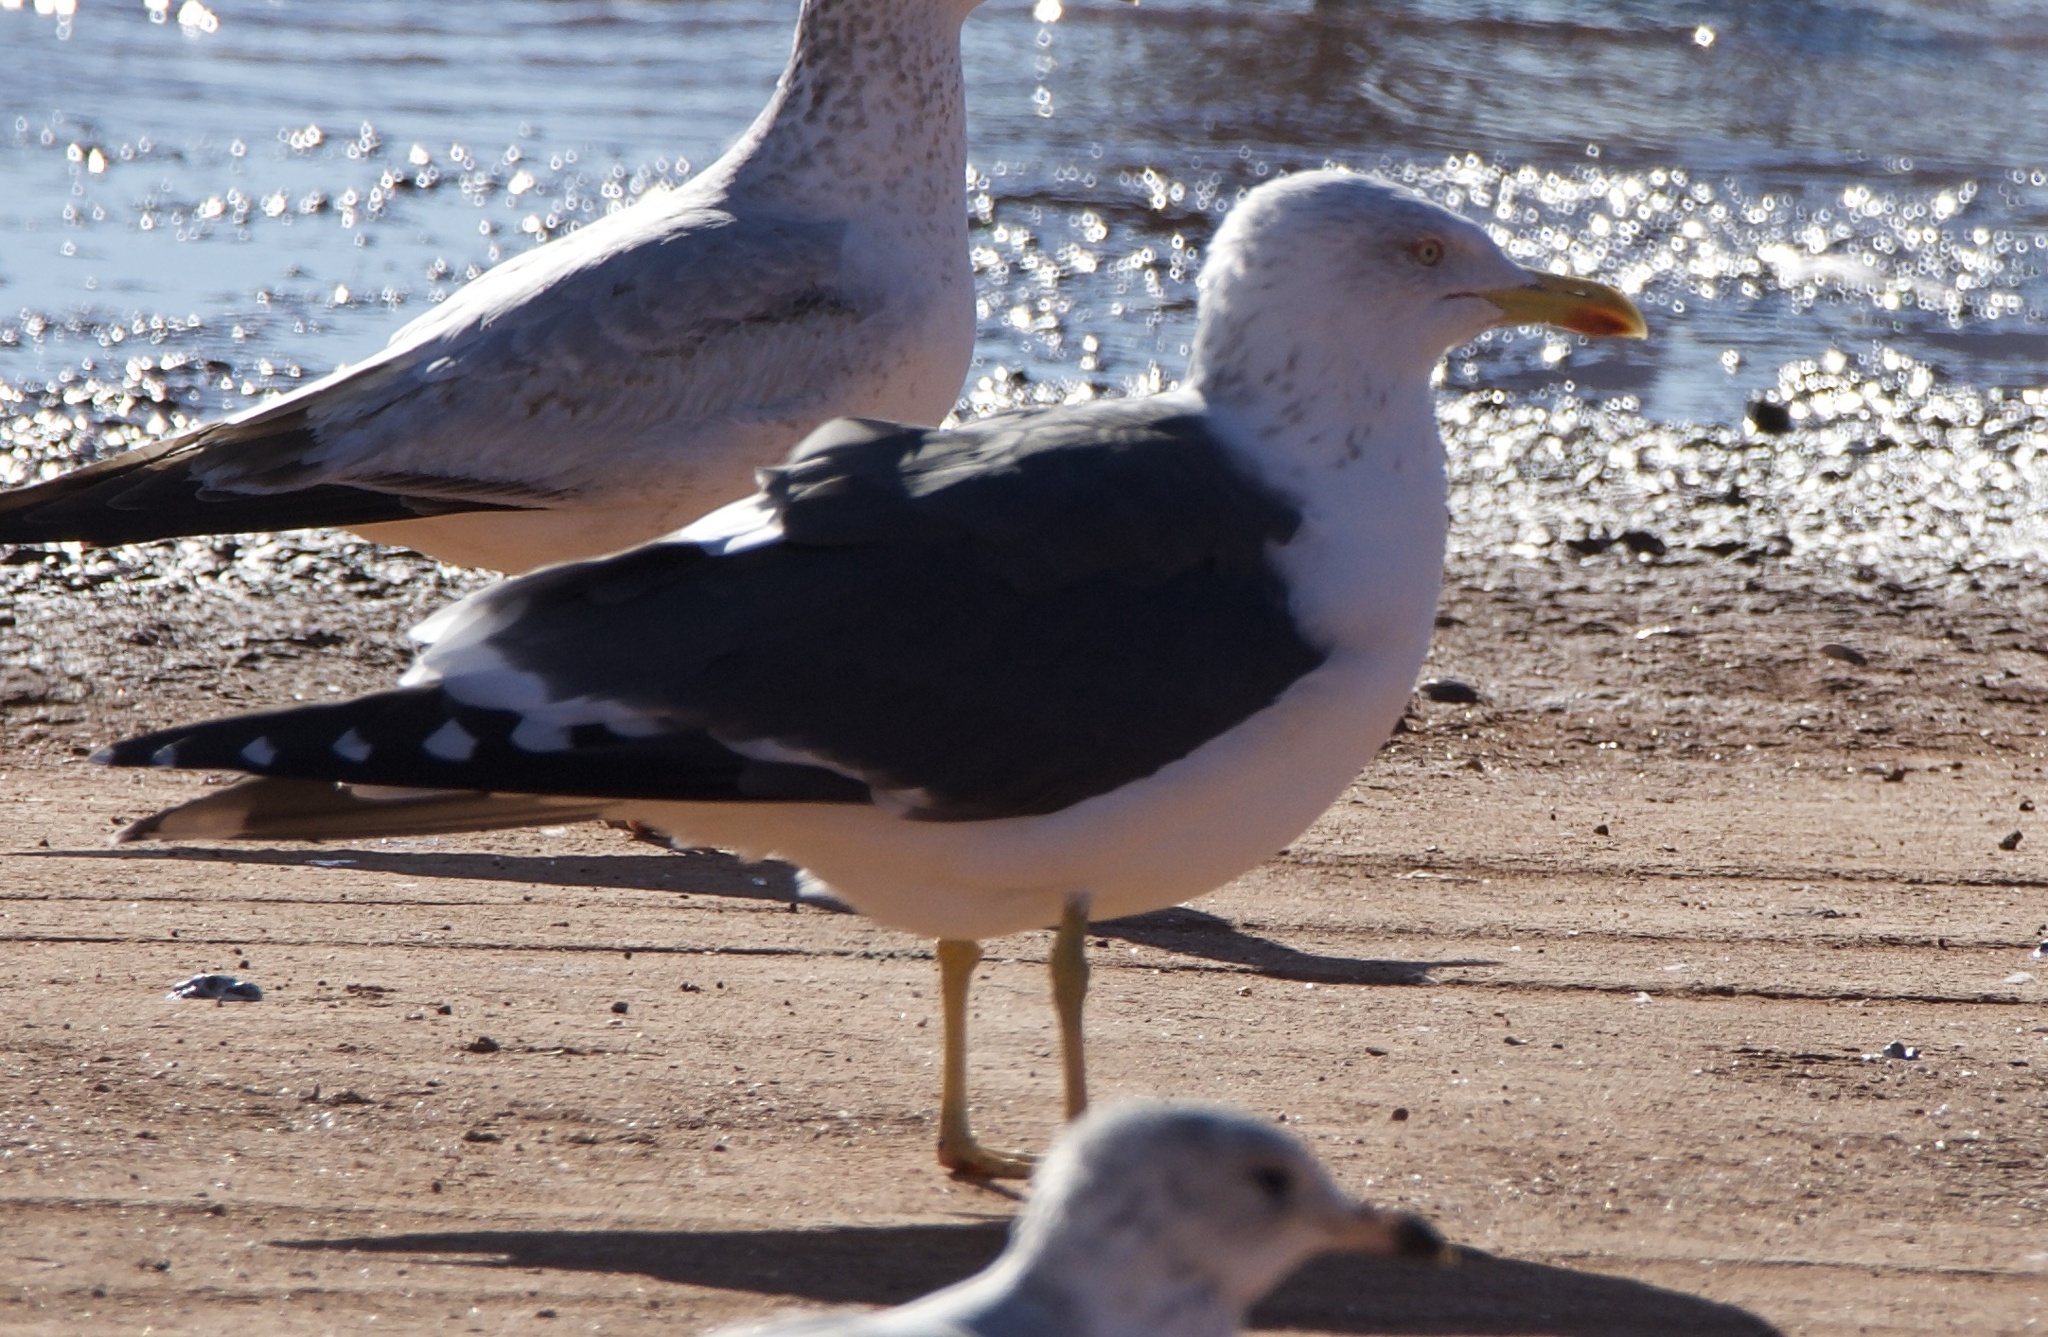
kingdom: Animalia
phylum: Chordata
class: Aves
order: Charadriiformes
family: Laridae
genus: Larus
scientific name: Larus fuscus
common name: Lesser black-backed gull
